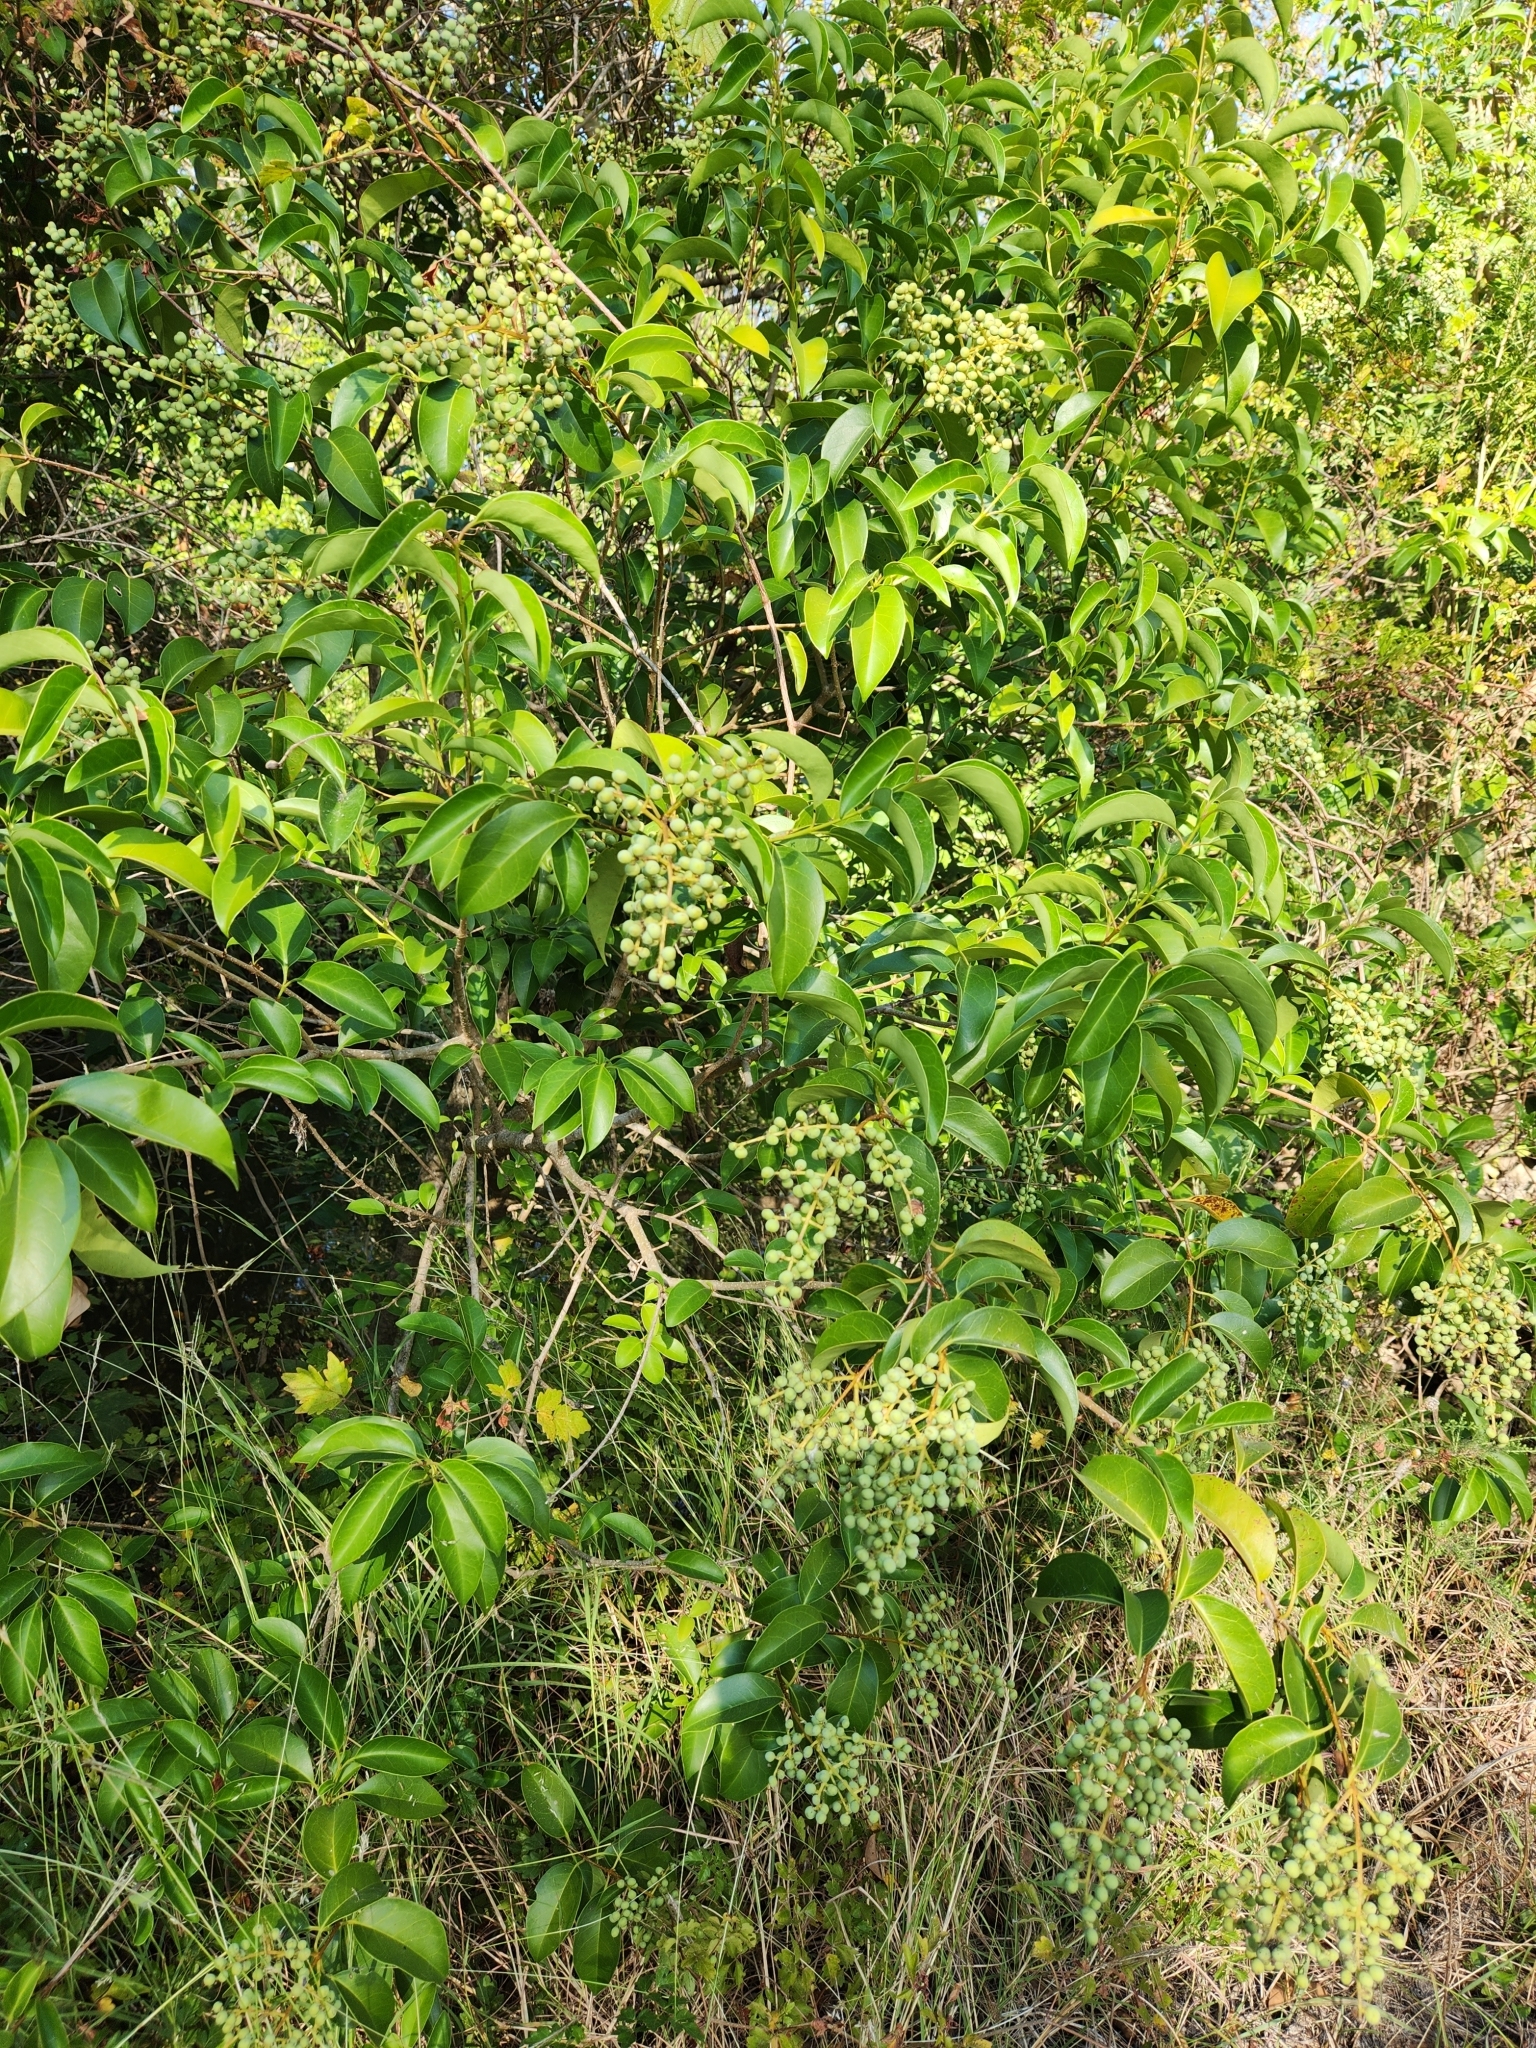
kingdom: Plantae
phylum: Tracheophyta
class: Magnoliopsida
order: Lamiales
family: Oleaceae
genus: Ligustrum
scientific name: Ligustrum lucidum
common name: Glossy privet
